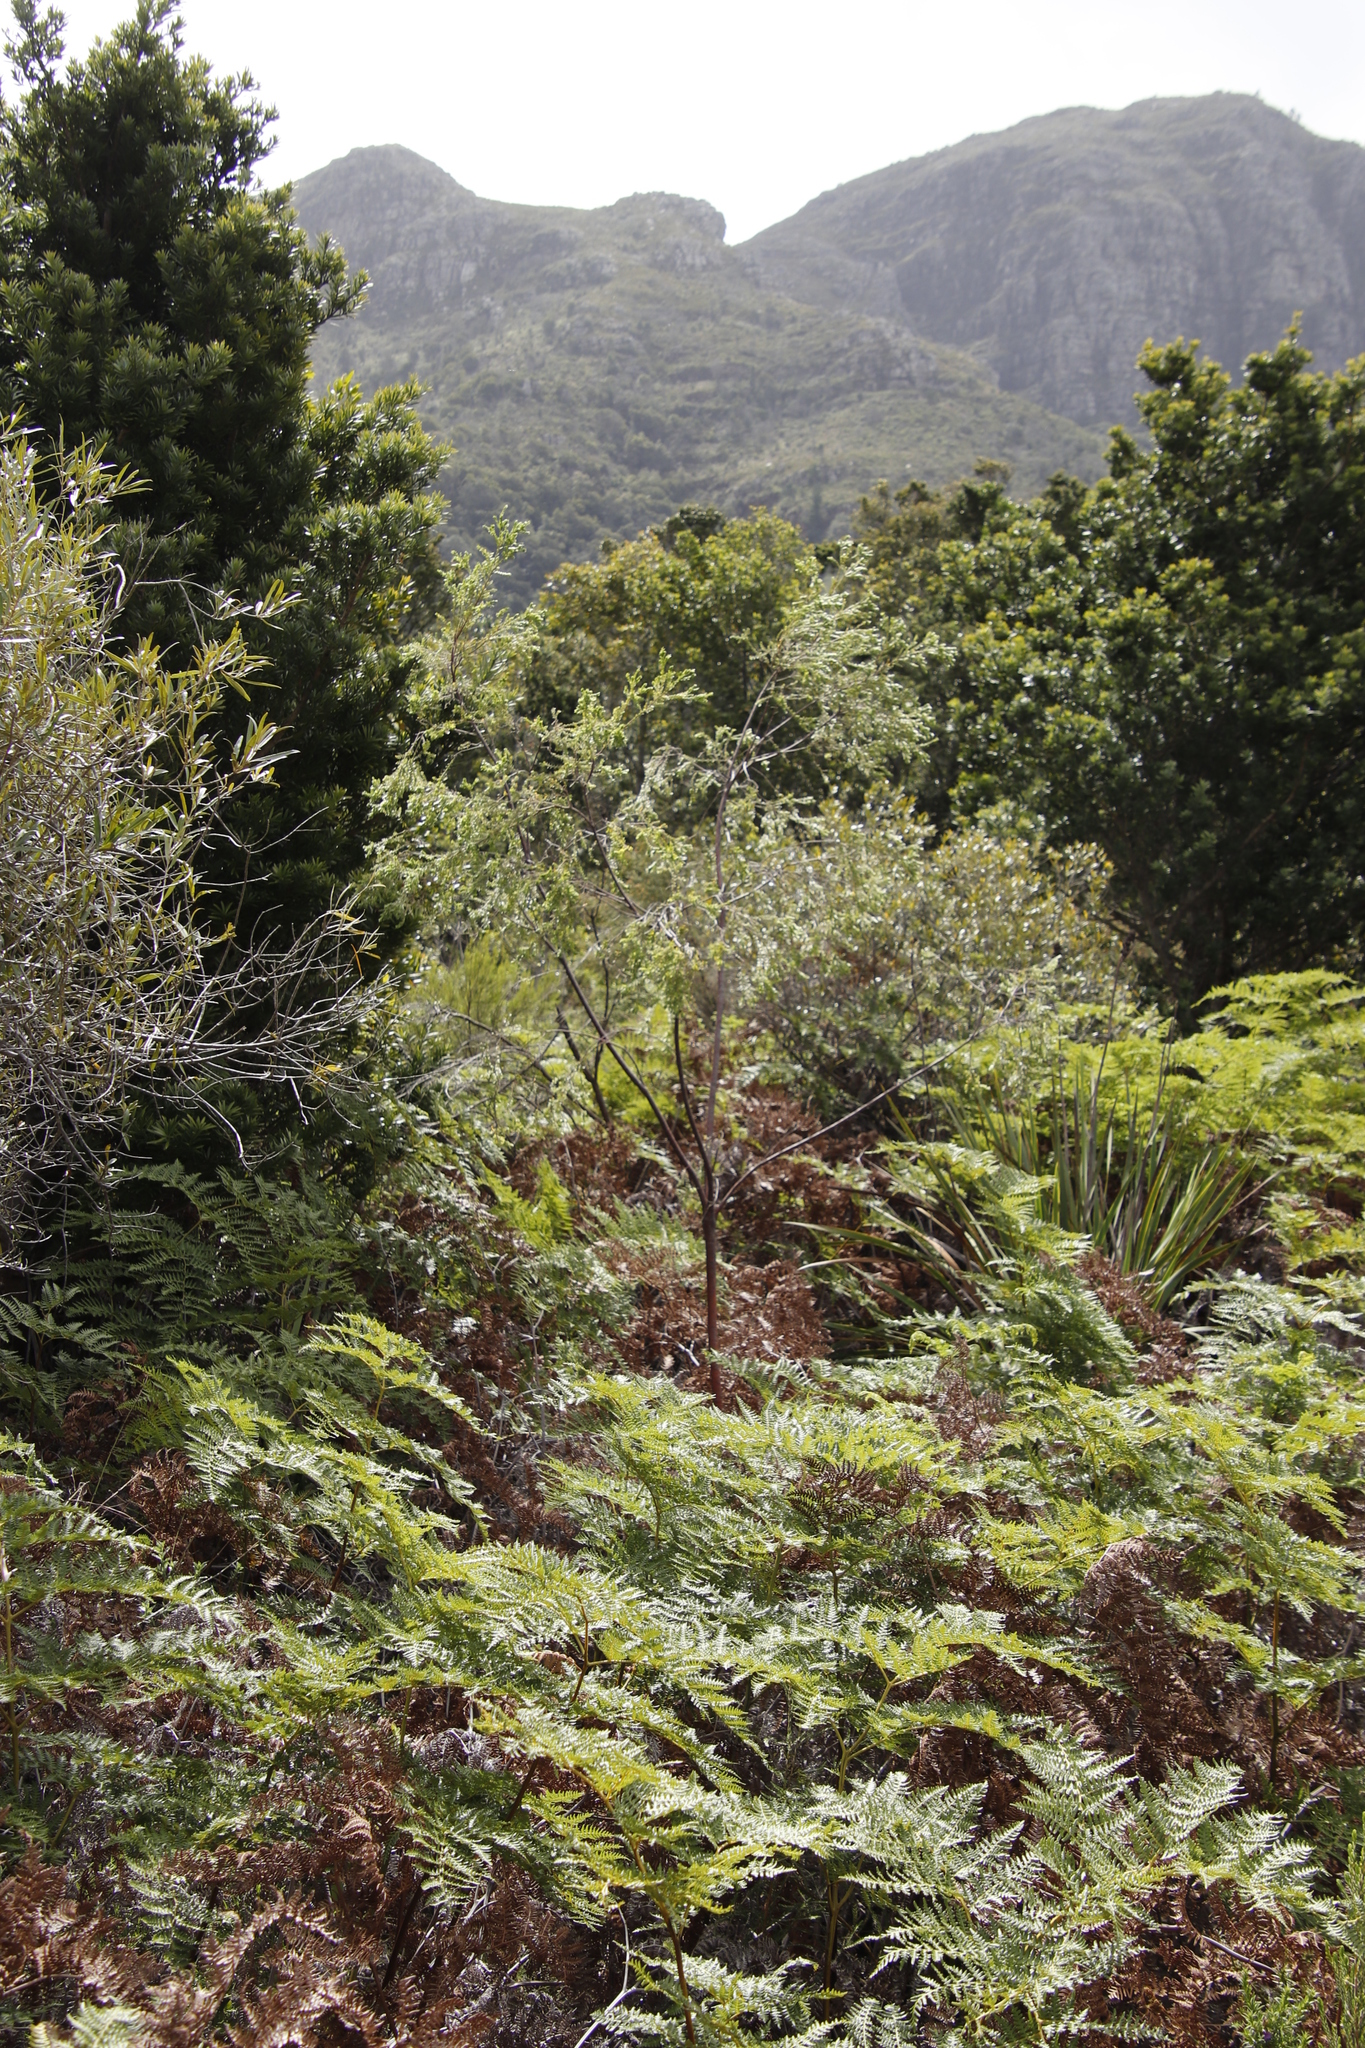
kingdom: Plantae
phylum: Tracheophyta
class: Magnoliopsida
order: Malvales
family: Thymelaeaceae
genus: Gnidia
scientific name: Gnidia sericea
